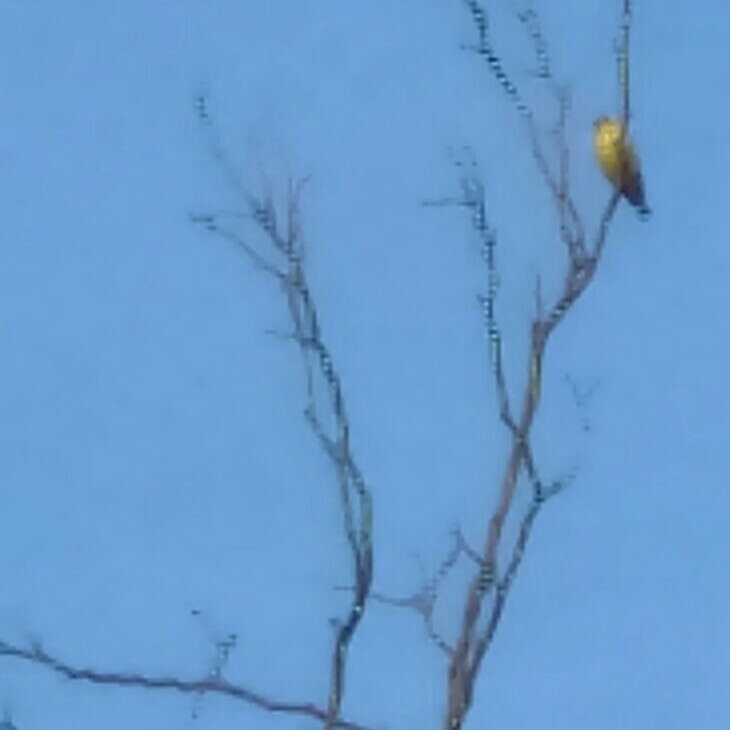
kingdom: Animalia
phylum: Chordata
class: Aves
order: Passeriformes
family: Fringillidae
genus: Spinus
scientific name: Spinus tristis
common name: American goldfinch
